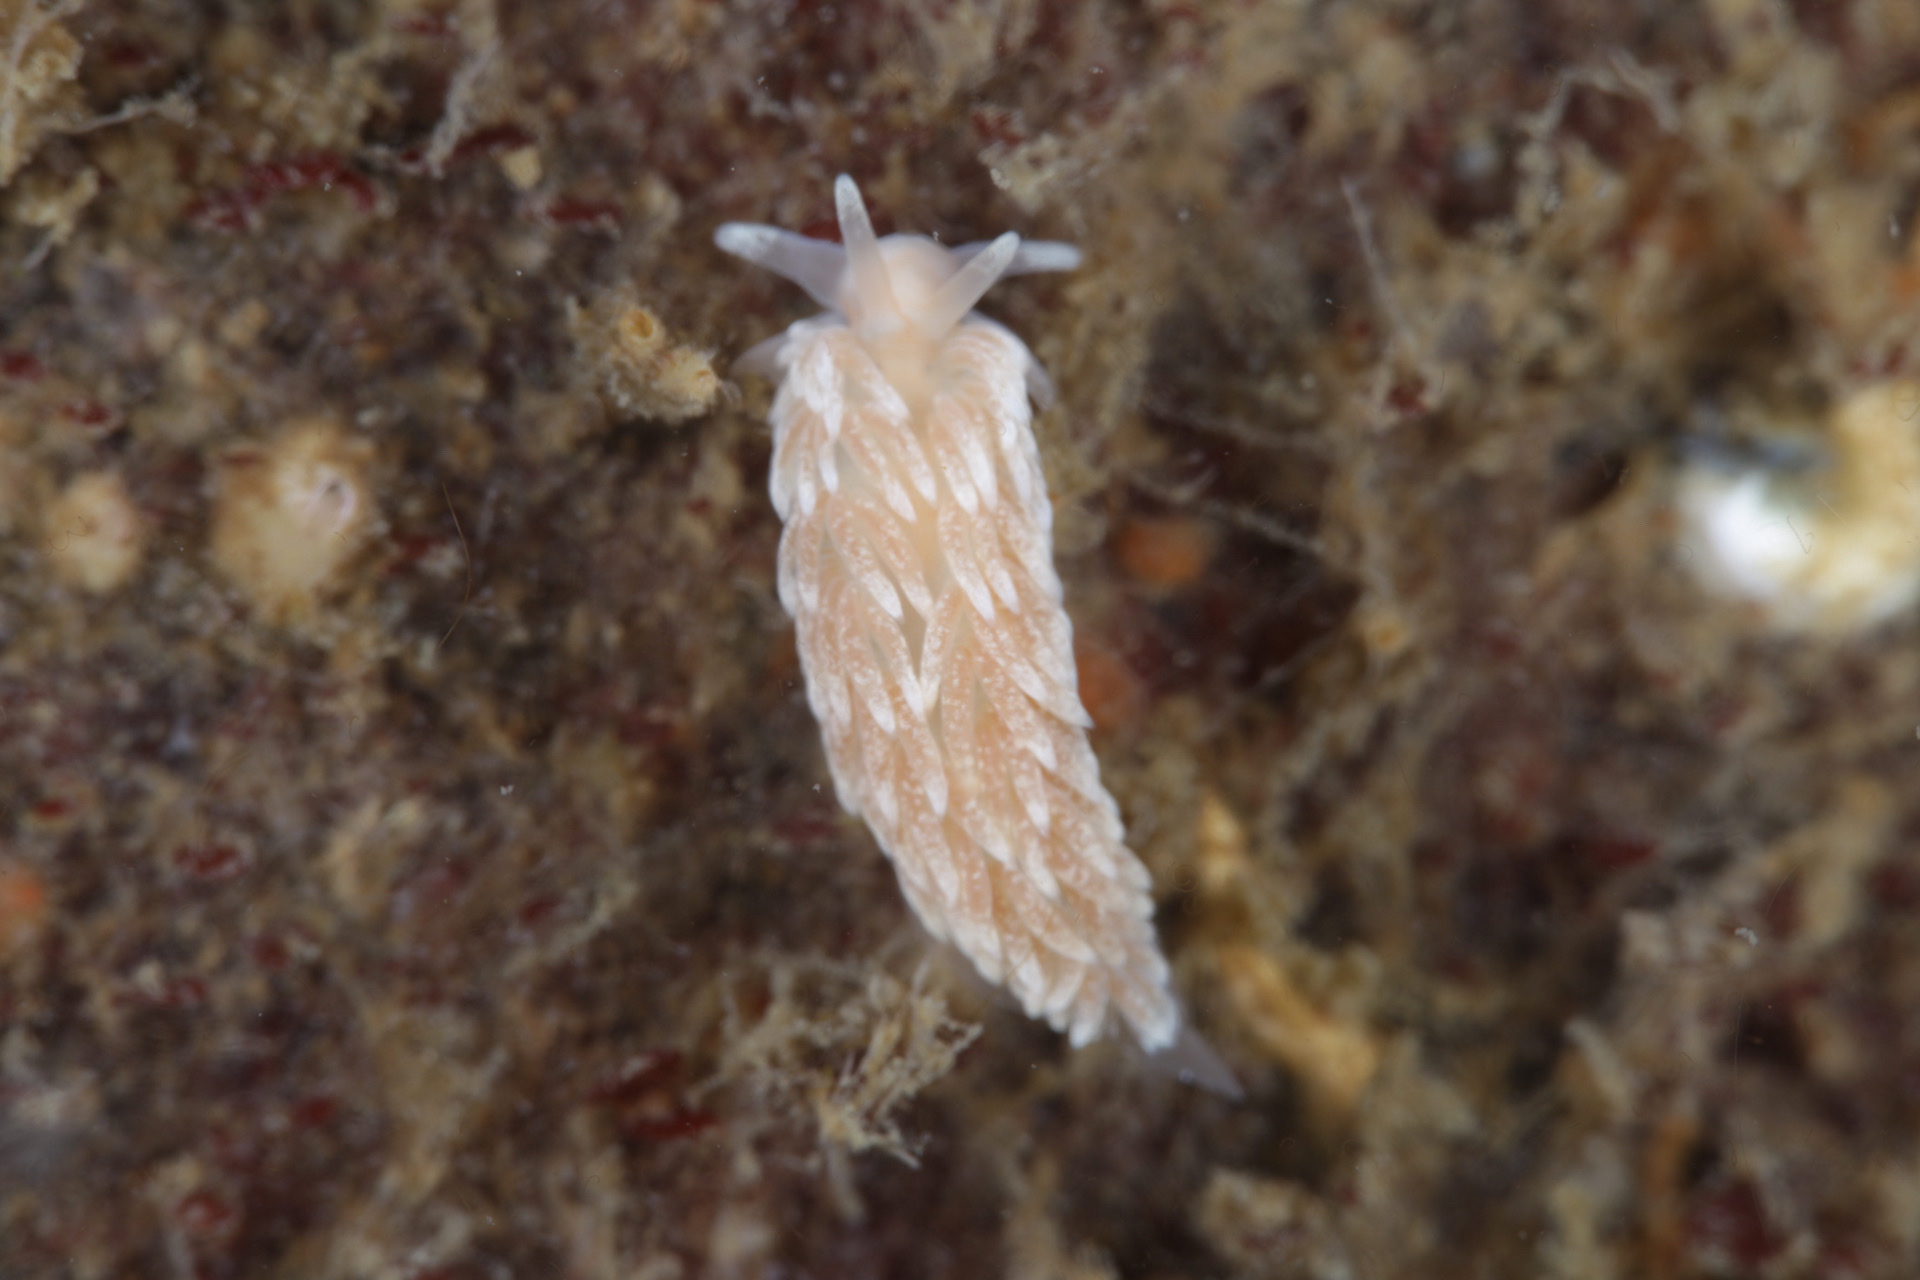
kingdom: Animalia
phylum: Mollusca
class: Gastropoda
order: Nudibranchia
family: Aeolidiidae
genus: Aeolidiella
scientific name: Aeolidiella glauca
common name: Orange-brown aeolid
